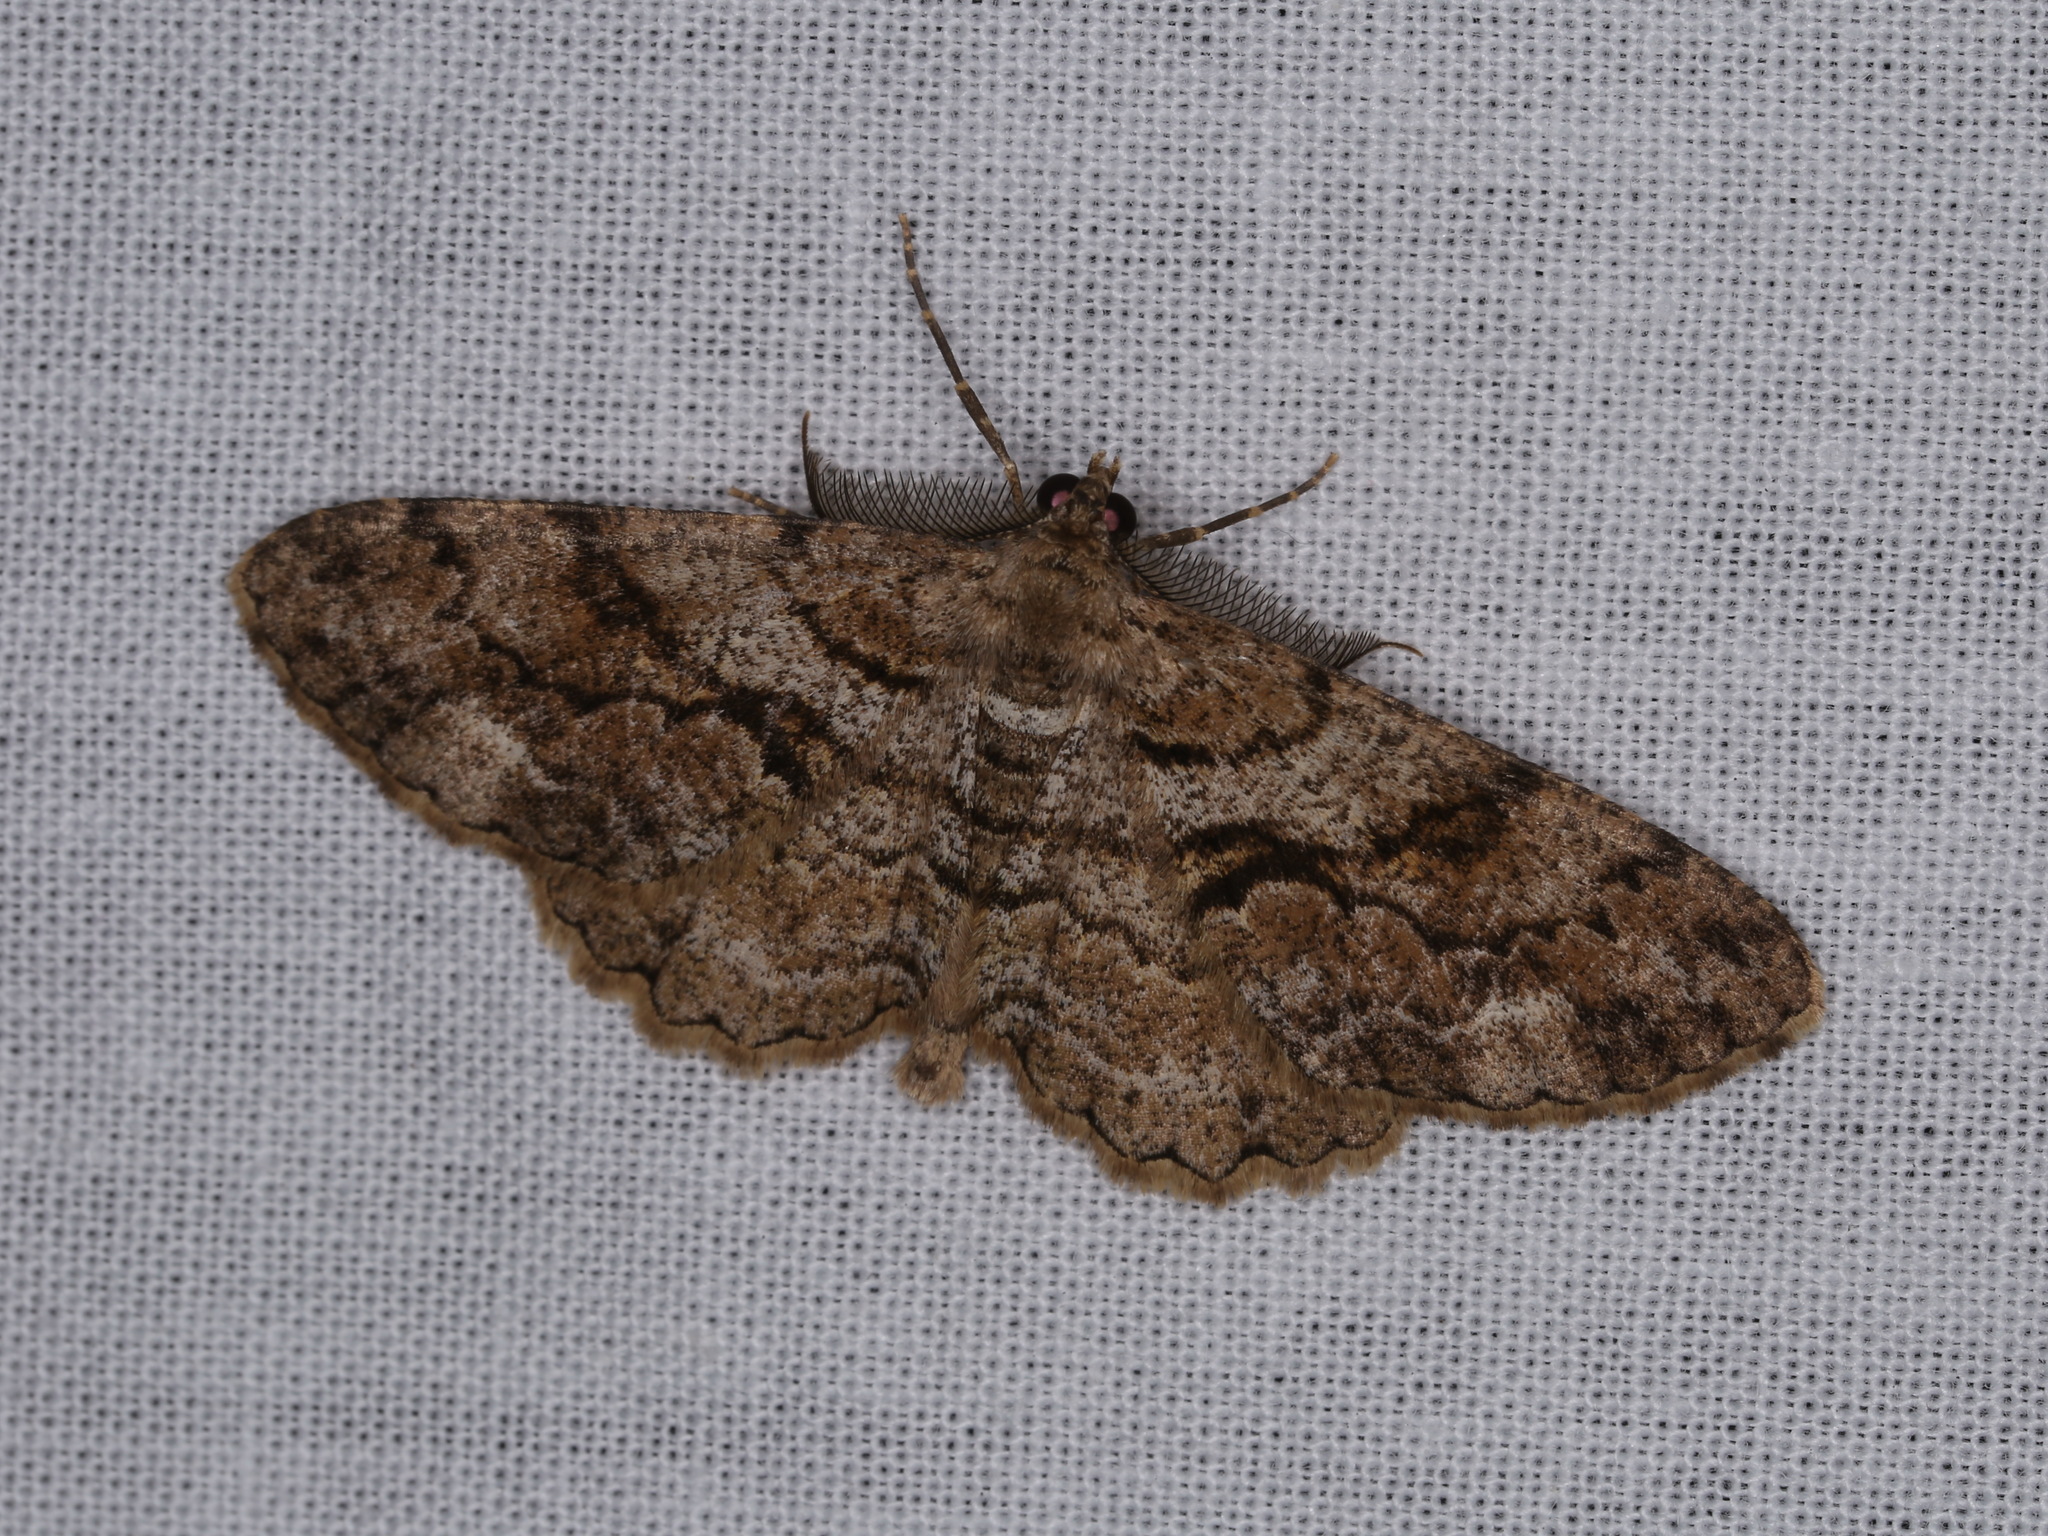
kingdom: Animalia
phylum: Arthropoda
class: Insecta
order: Lepidoptera
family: Geometridae
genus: Peribatodes
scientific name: Peribatodes secundaria
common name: Feathered beauty
